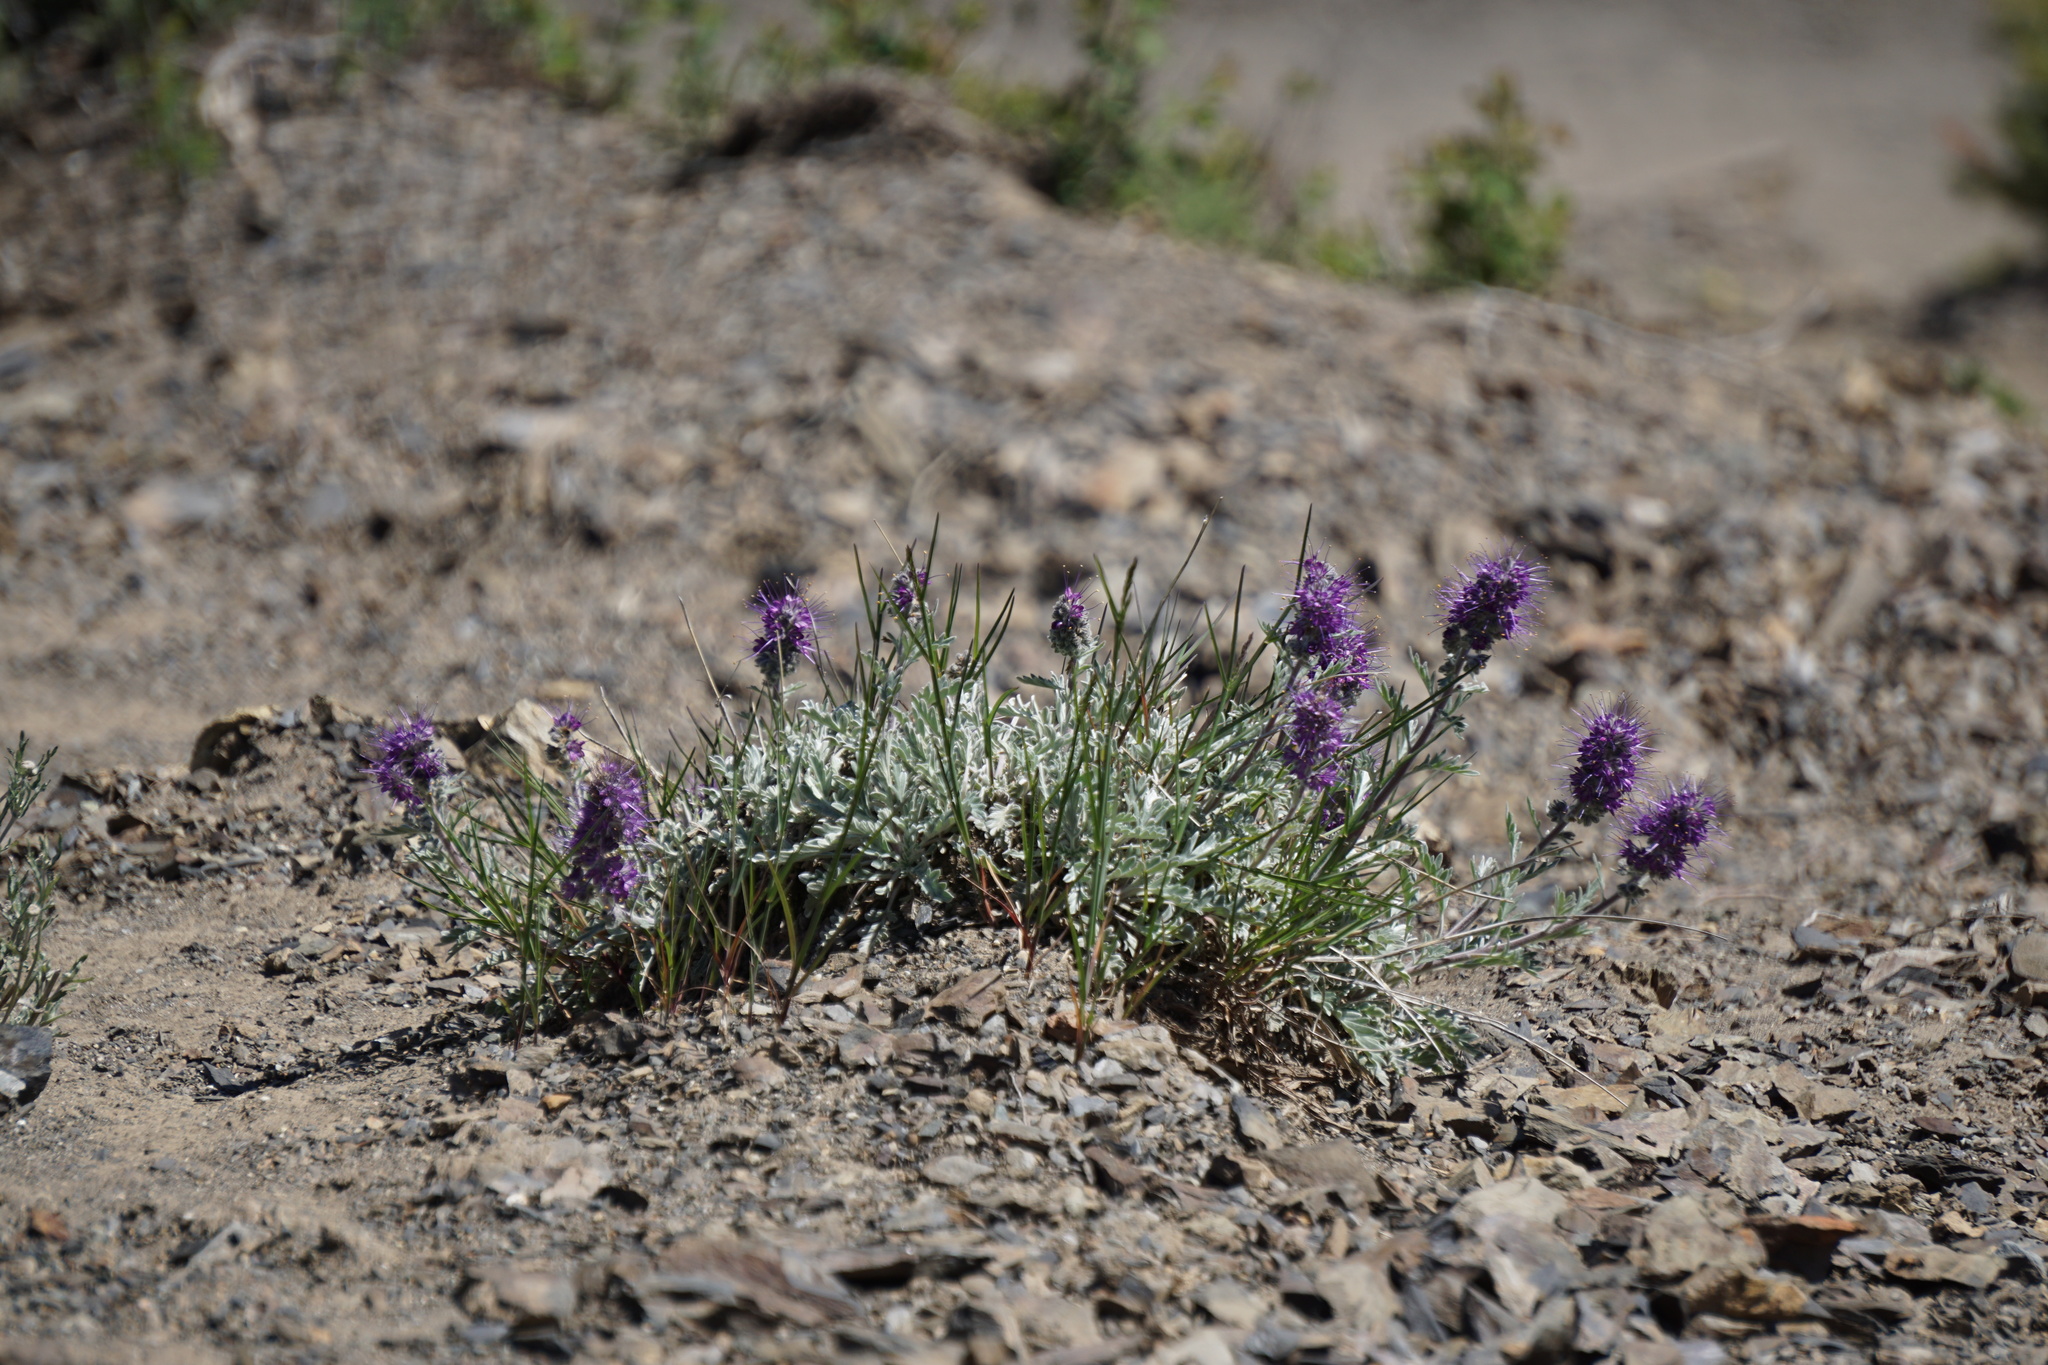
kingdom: Plantae
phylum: Tracheophyta
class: Magnoliopsida
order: Boraginales
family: Hydrophyllaceae
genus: Phacelia
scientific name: Phacelia sericea
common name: Silky phacelia
